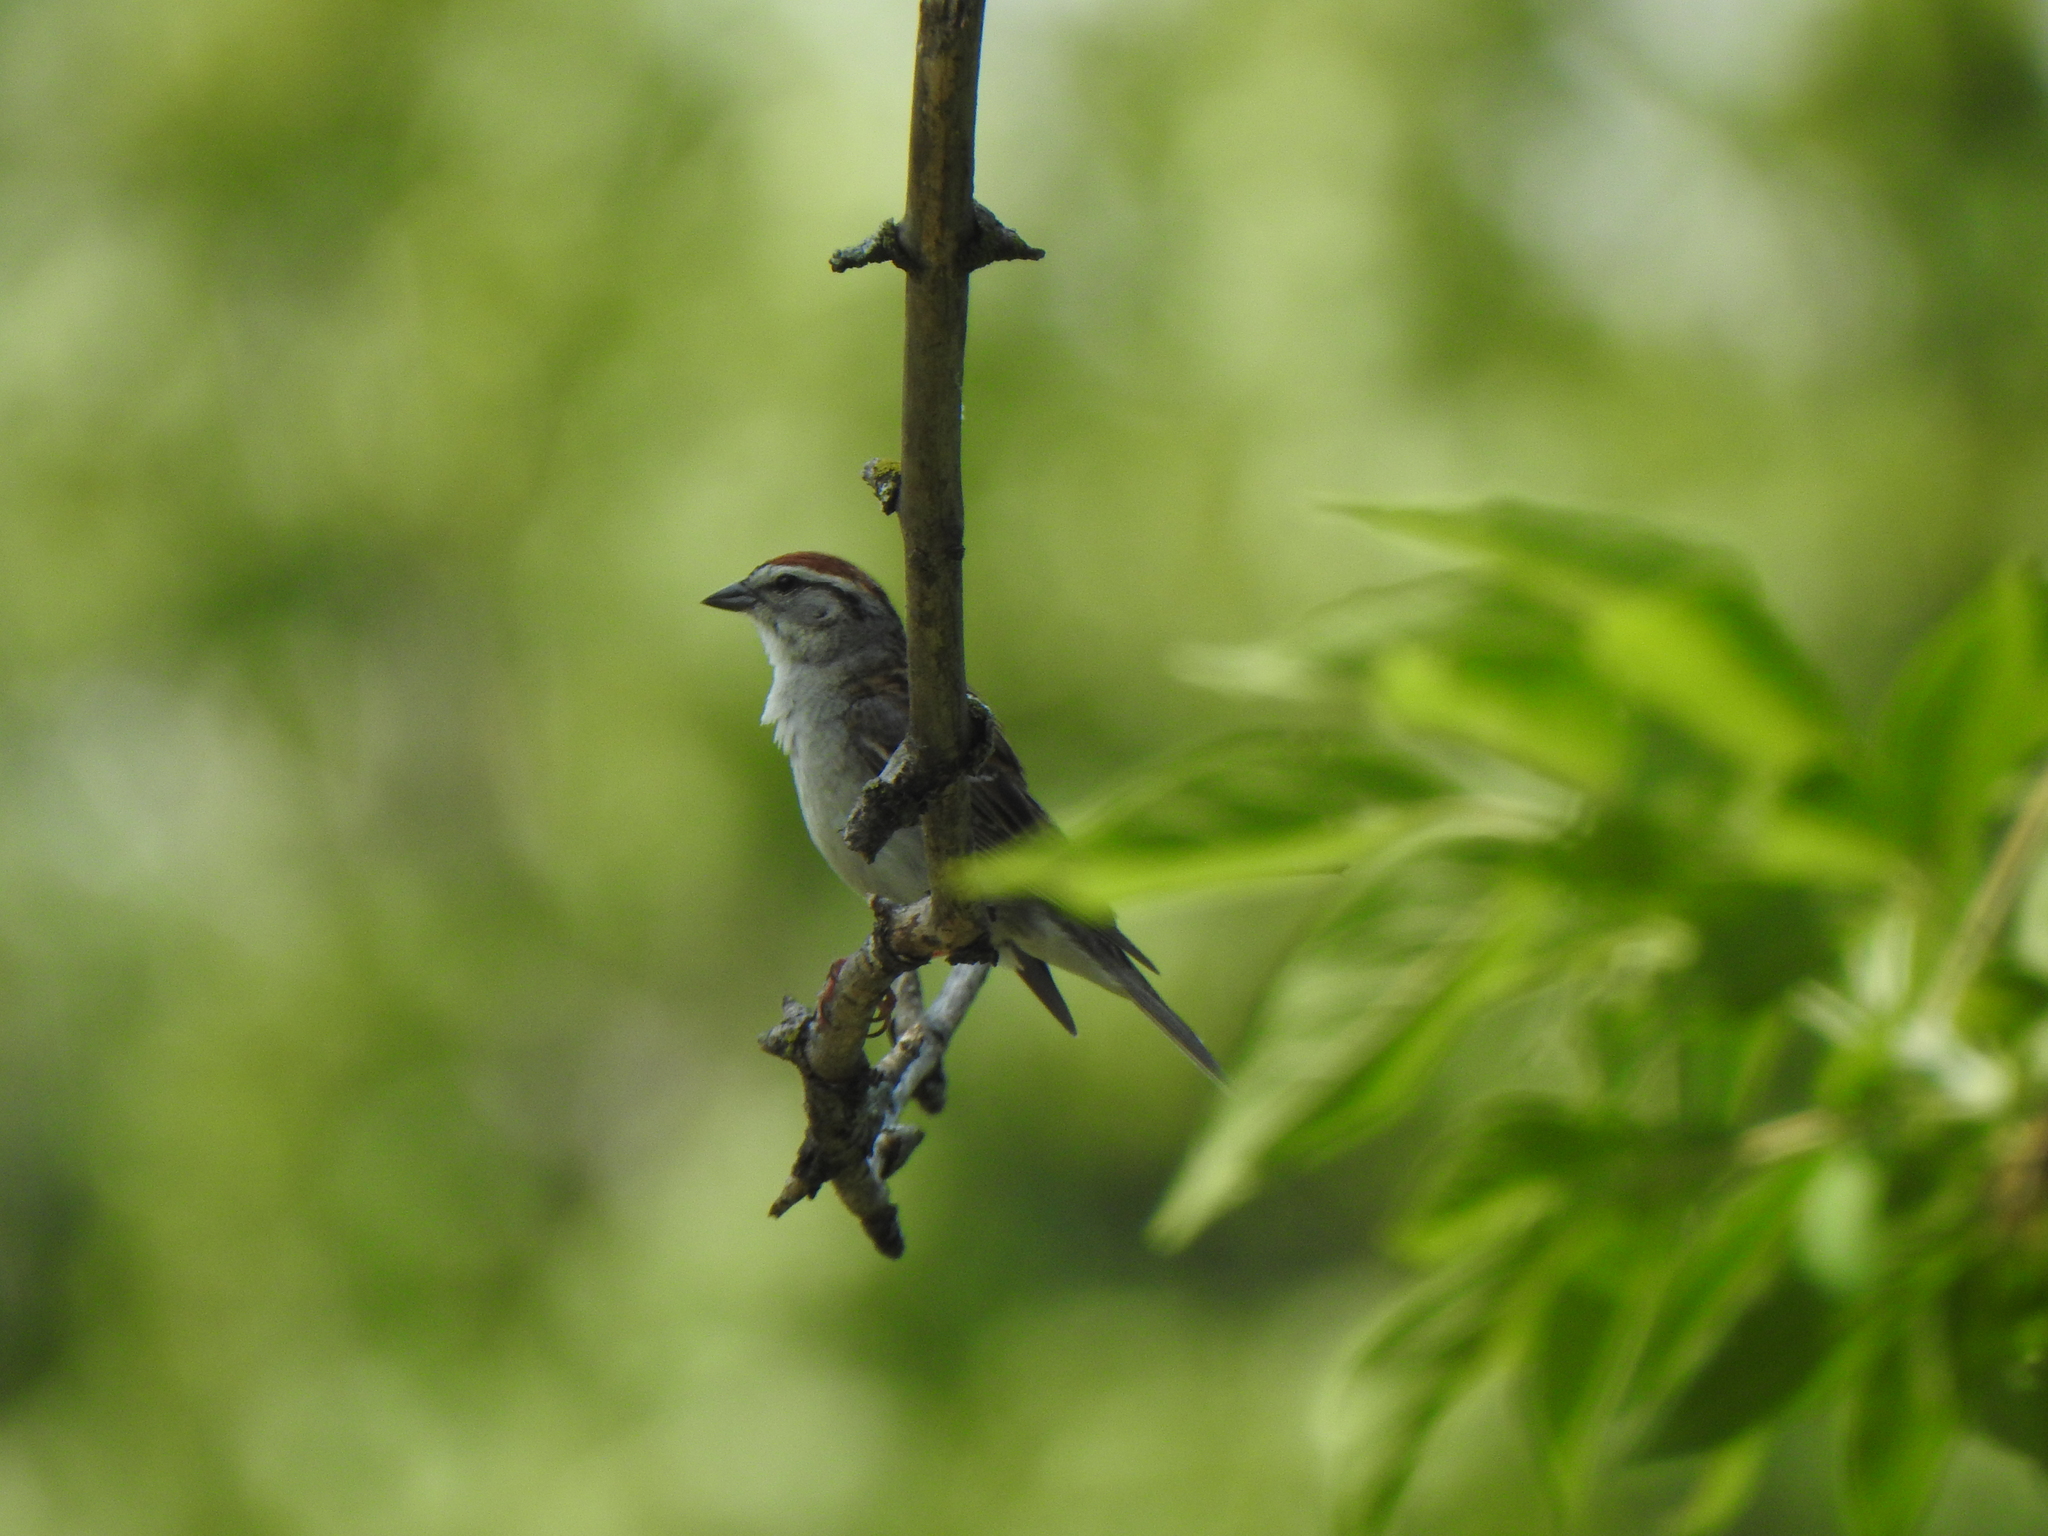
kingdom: Animalia
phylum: Chordata
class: Aves
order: Passeriformes
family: Passerellidae
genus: Spizella
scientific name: Spizella passerina
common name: Chipping sparrow
